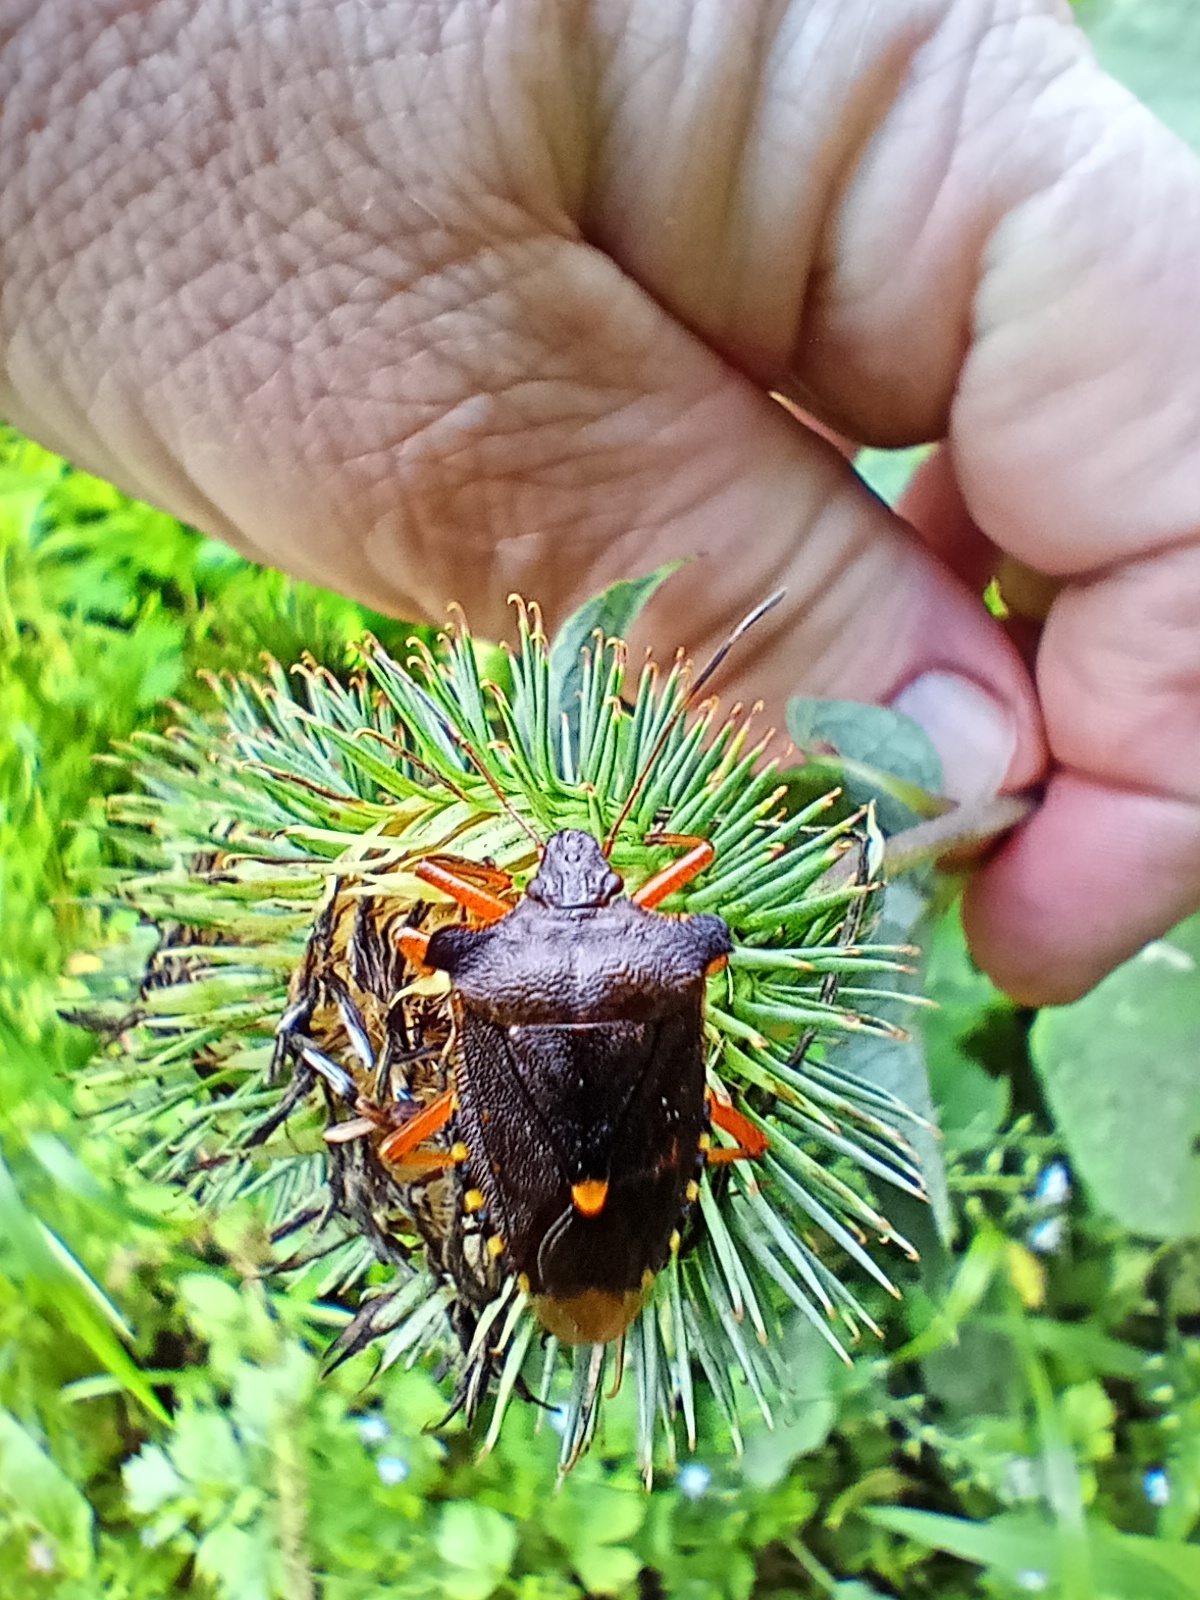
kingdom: Animalia
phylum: Arthropoda
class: Insecta
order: Hemiptera
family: Pentatomidae
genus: Pentatoma
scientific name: Pentatoma rufipes
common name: Forest bug
